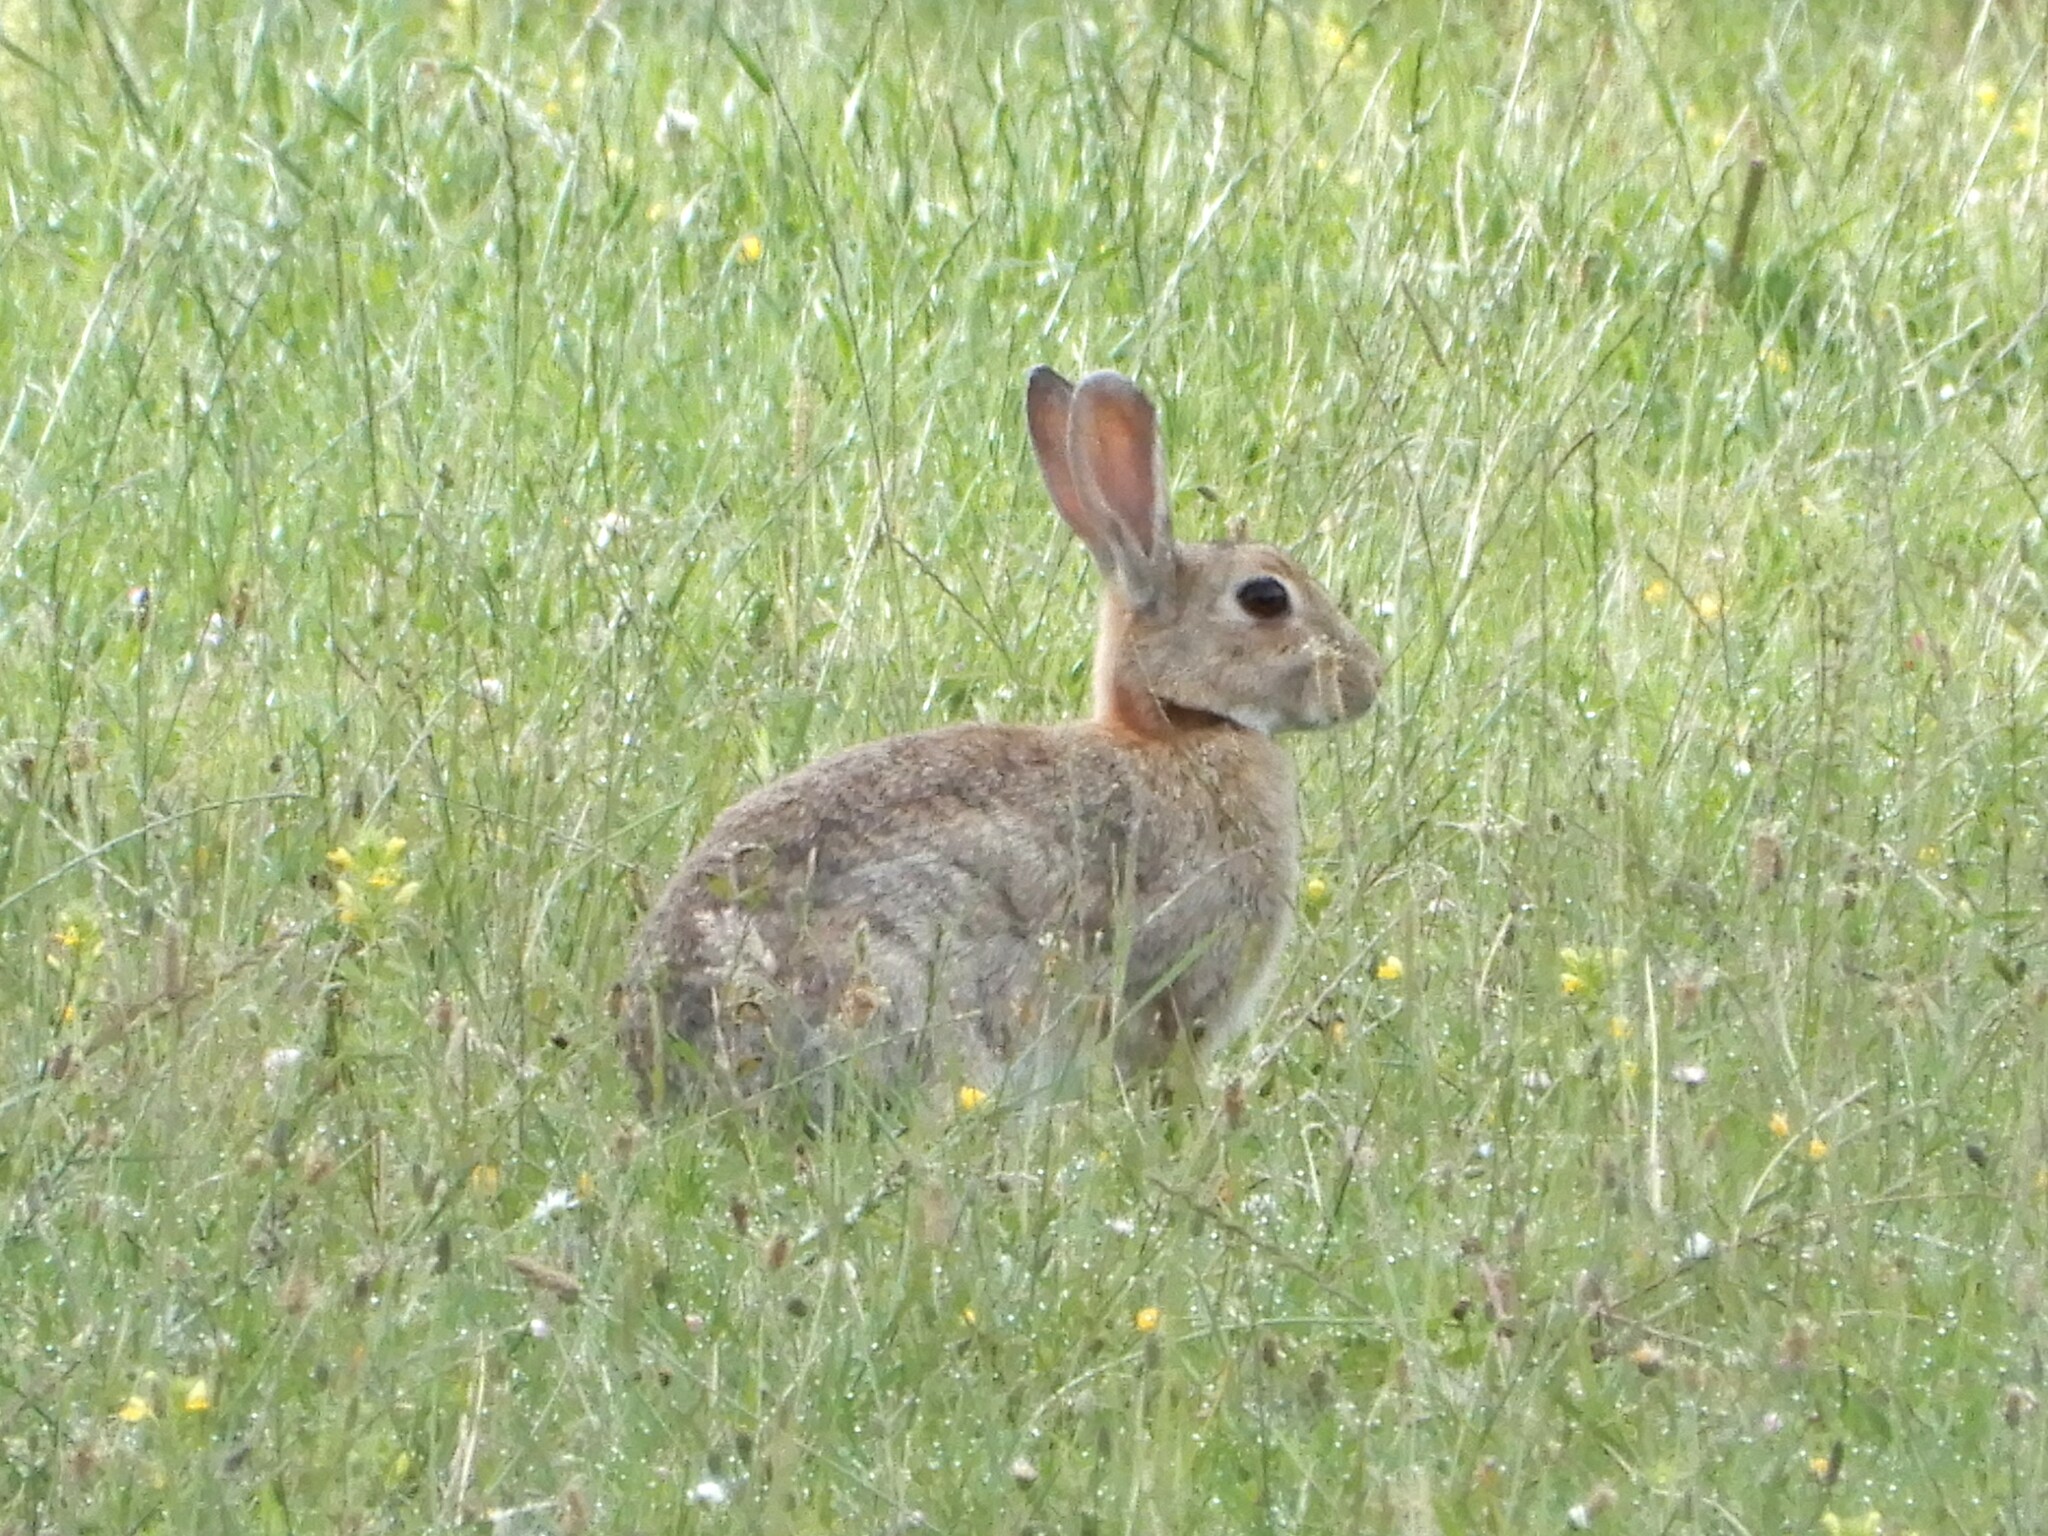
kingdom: Animalia
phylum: Chordata
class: Mammalia
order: Lagomorpha
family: Leporidae
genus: Oryctolagus
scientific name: Oryctolagus cuniculus
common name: European rabbit
